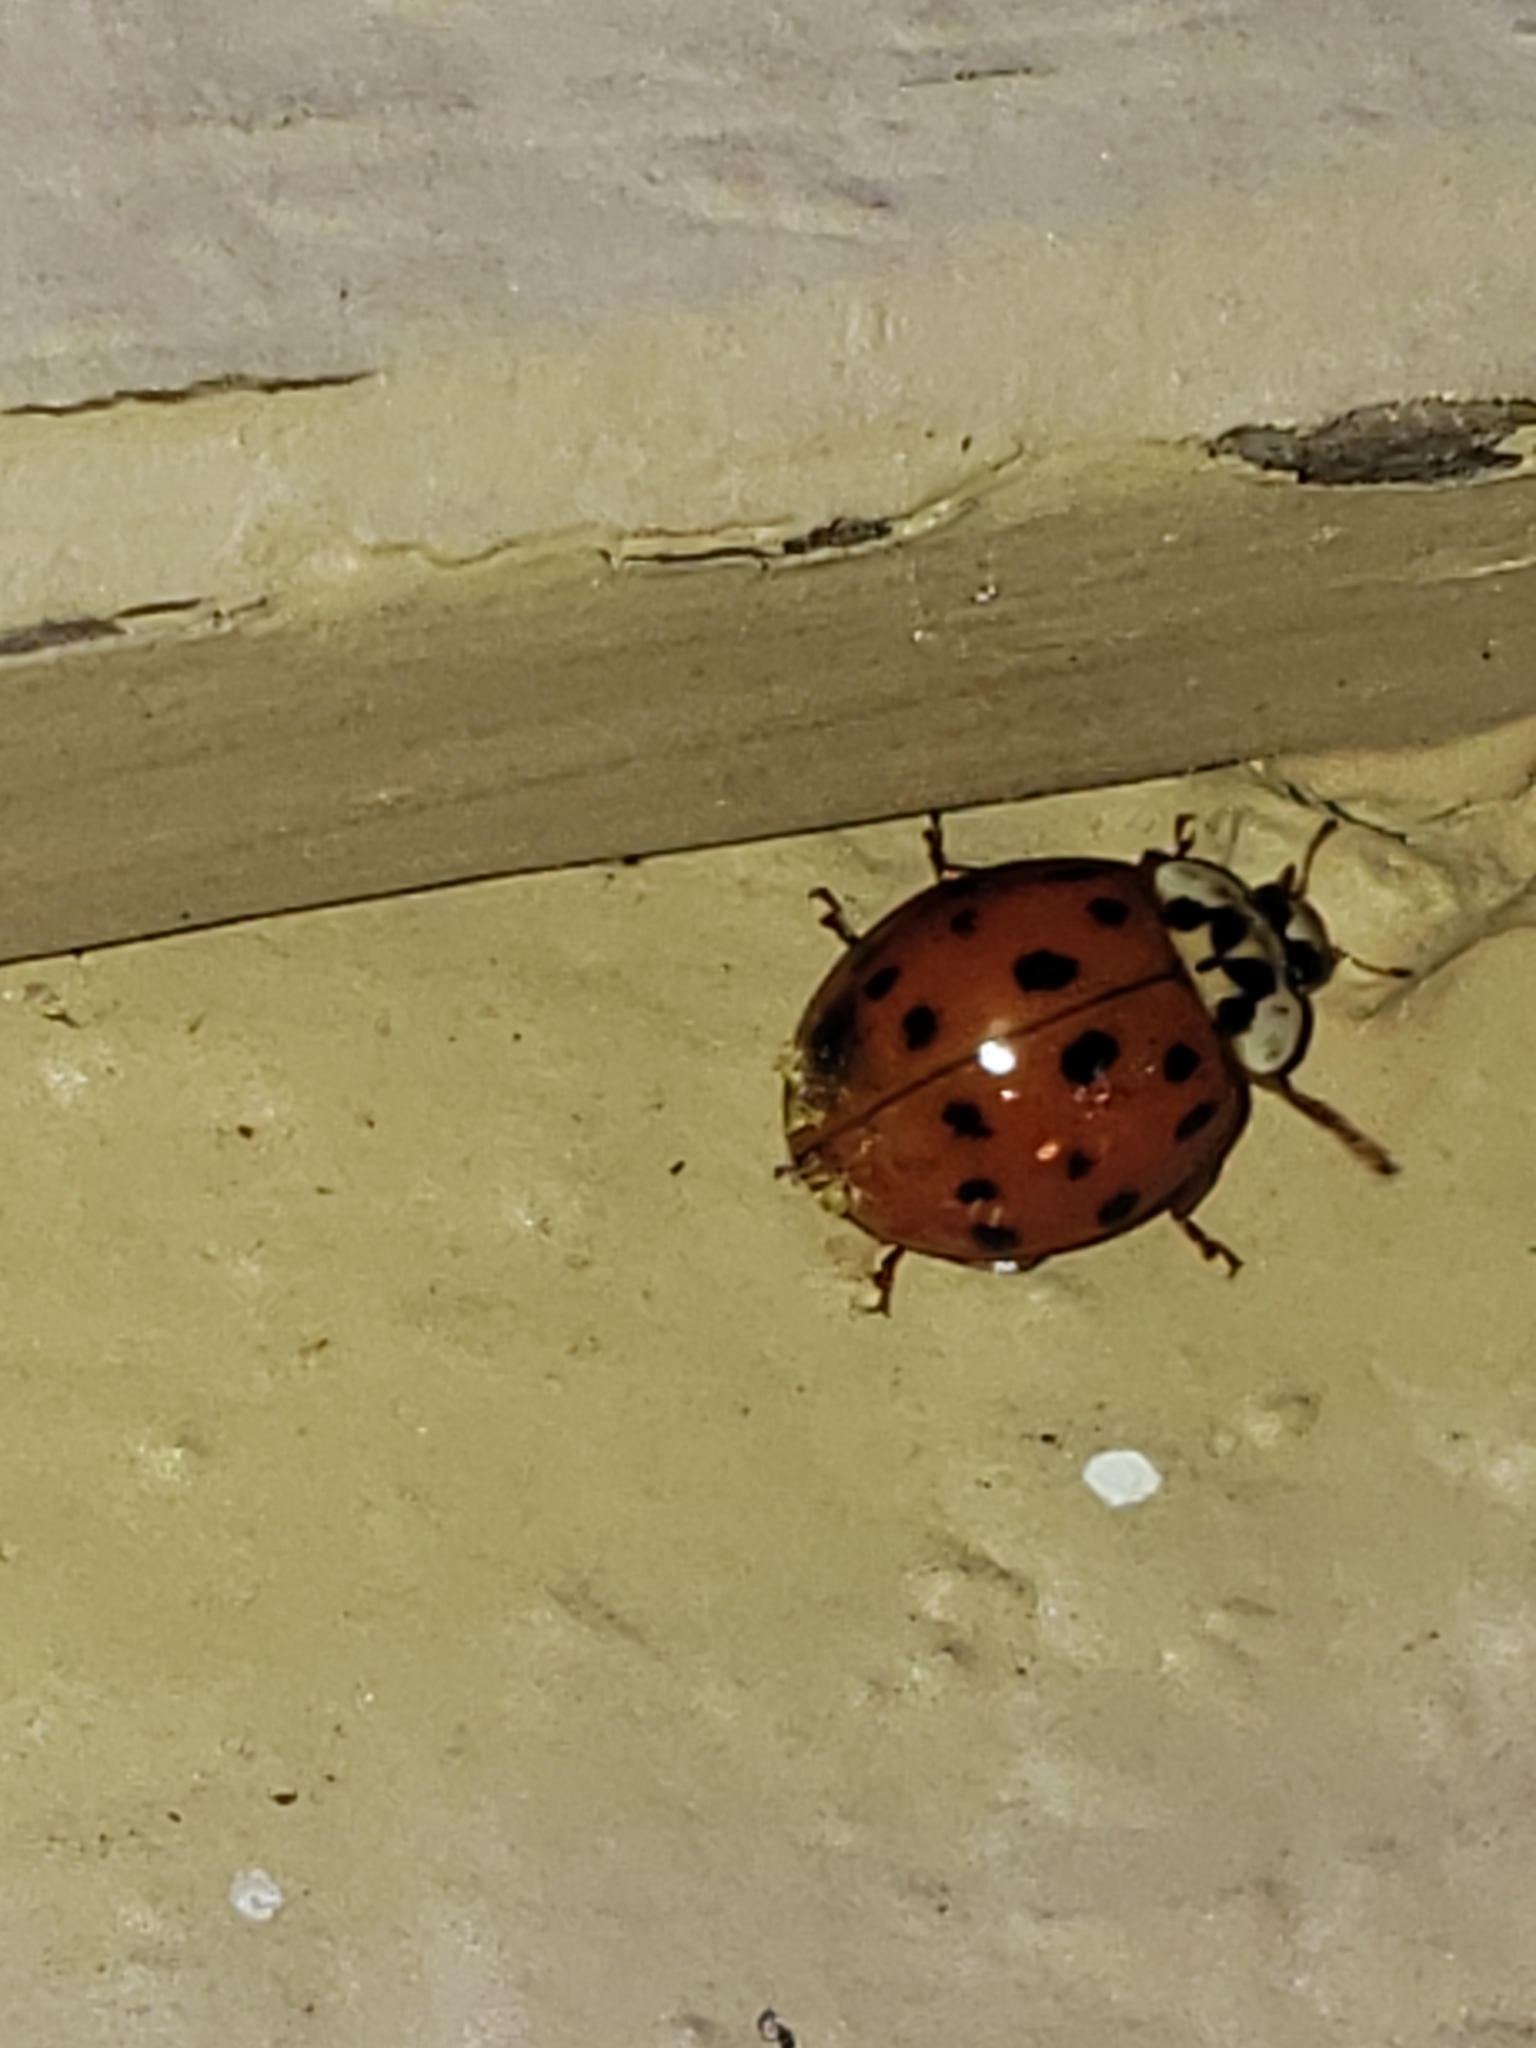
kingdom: Animalia
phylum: Arthropoda
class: Insecta
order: Coleoptera
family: Coccinellidae
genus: Harmonia
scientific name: Harmonia axyridis
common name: Harlequin ladybird
